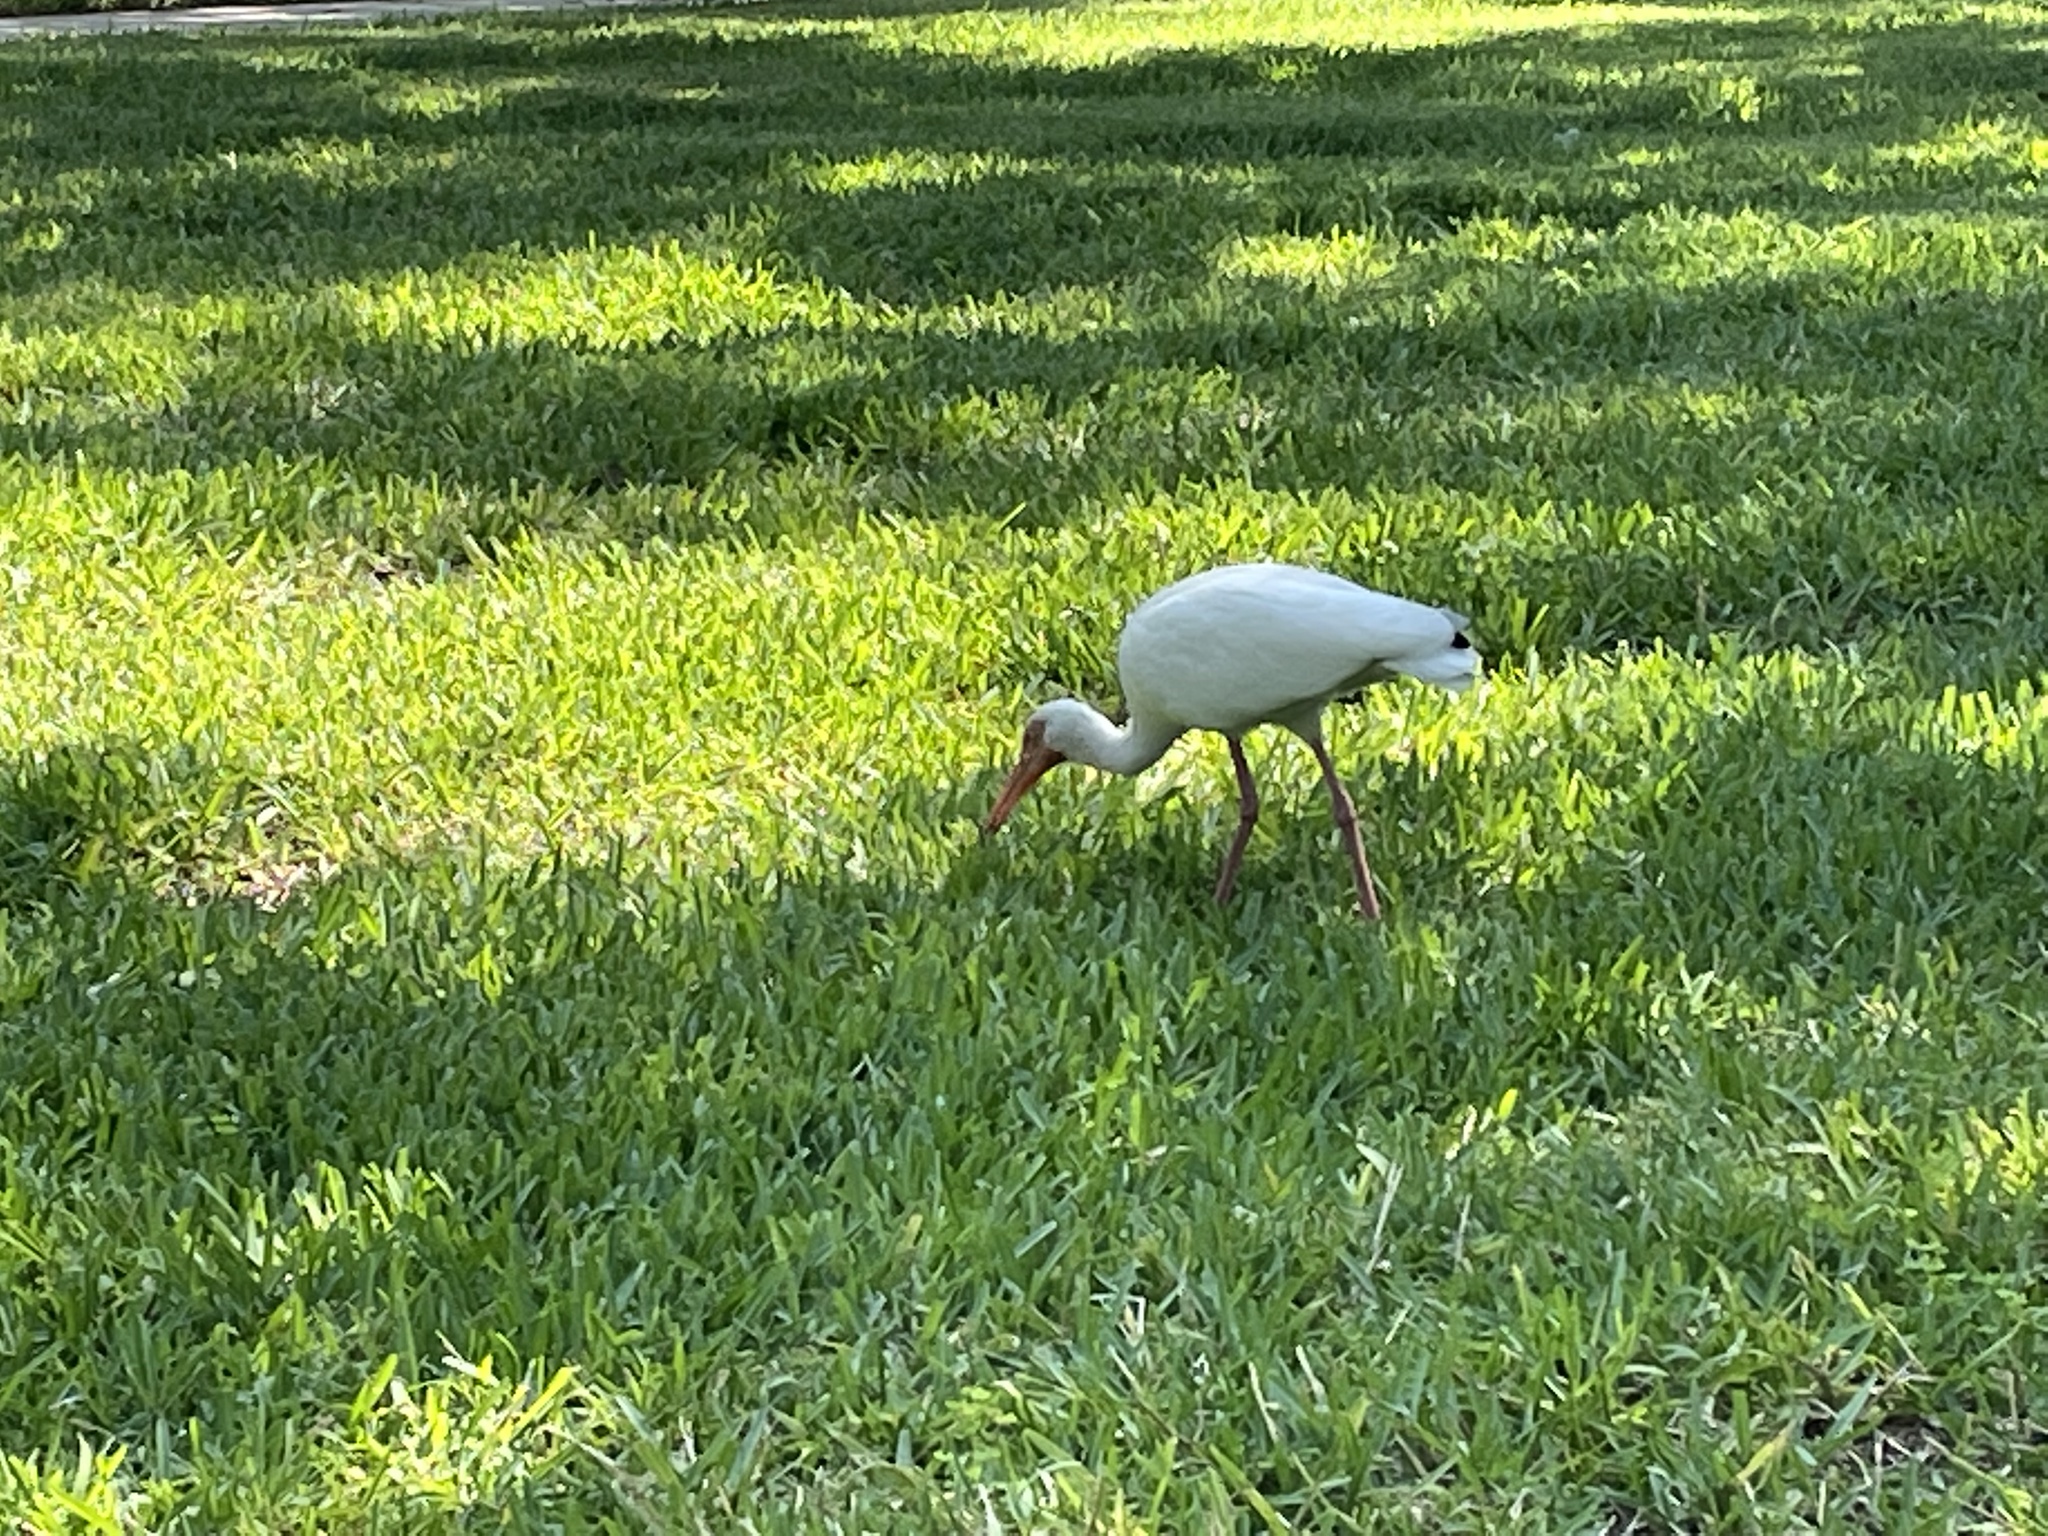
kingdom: Animalia
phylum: Chordata
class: Aves
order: Pelecaniformes
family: Threskiornithidae
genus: Eudocimus
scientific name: Eudocimus albus
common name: White ibis
